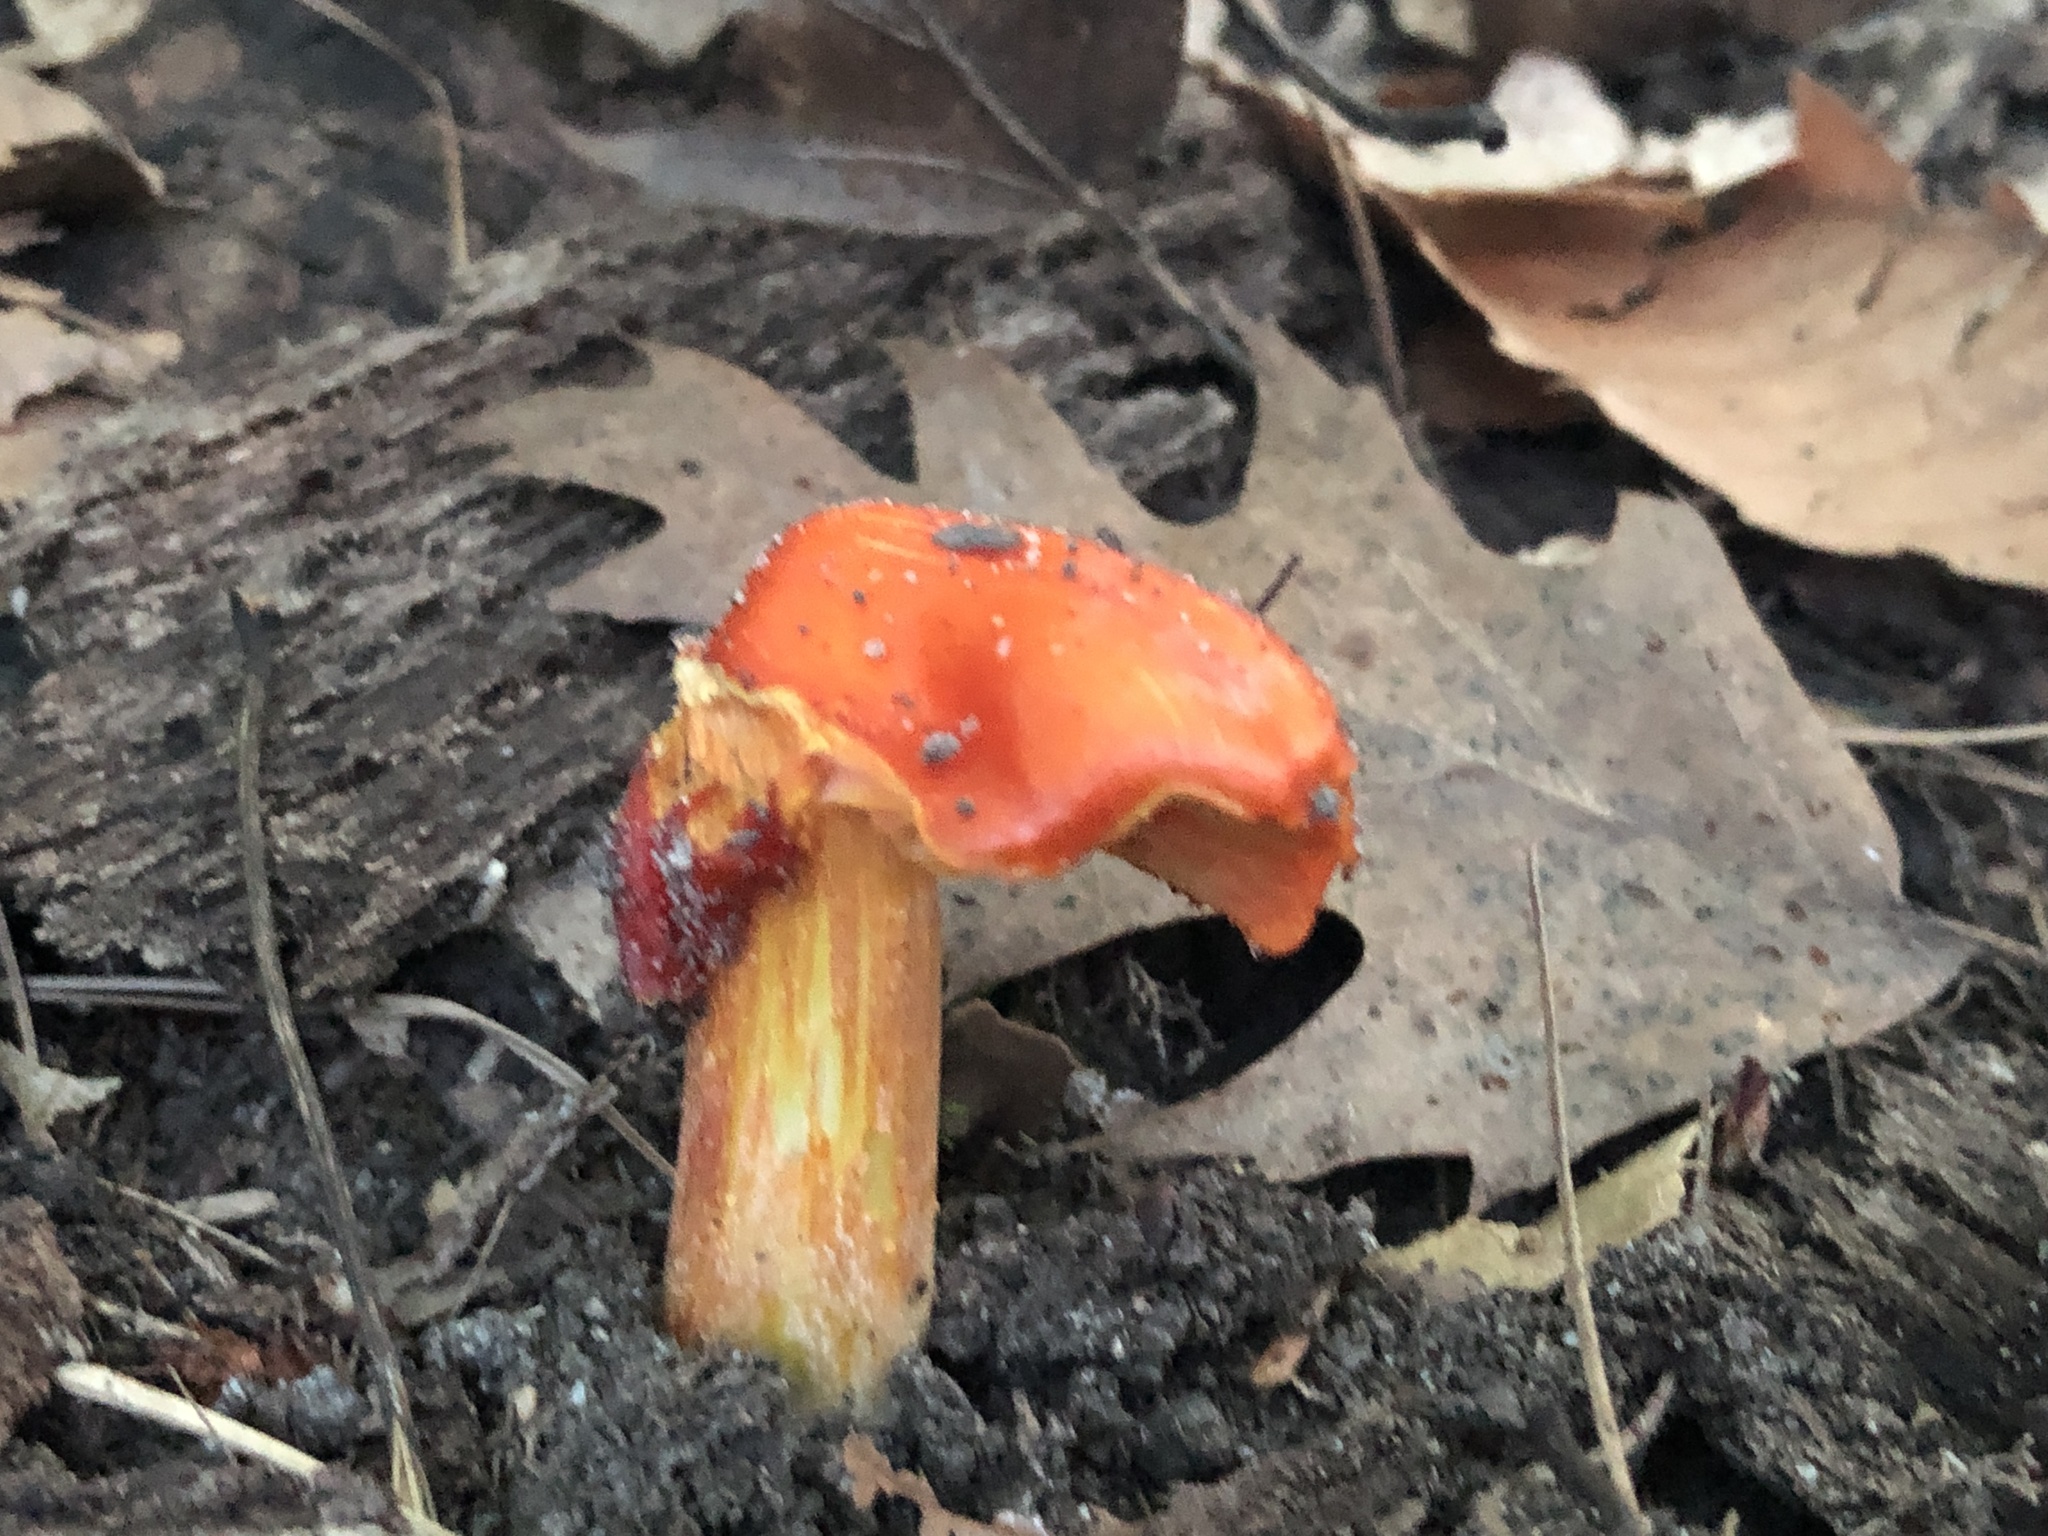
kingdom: Fungi
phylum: Basidiomycota
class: Agaricomycetes
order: Agaricales
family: Hygrophoraceae
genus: Hygrocybe
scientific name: Hygrocybe punicea
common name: Crimson waxcap
